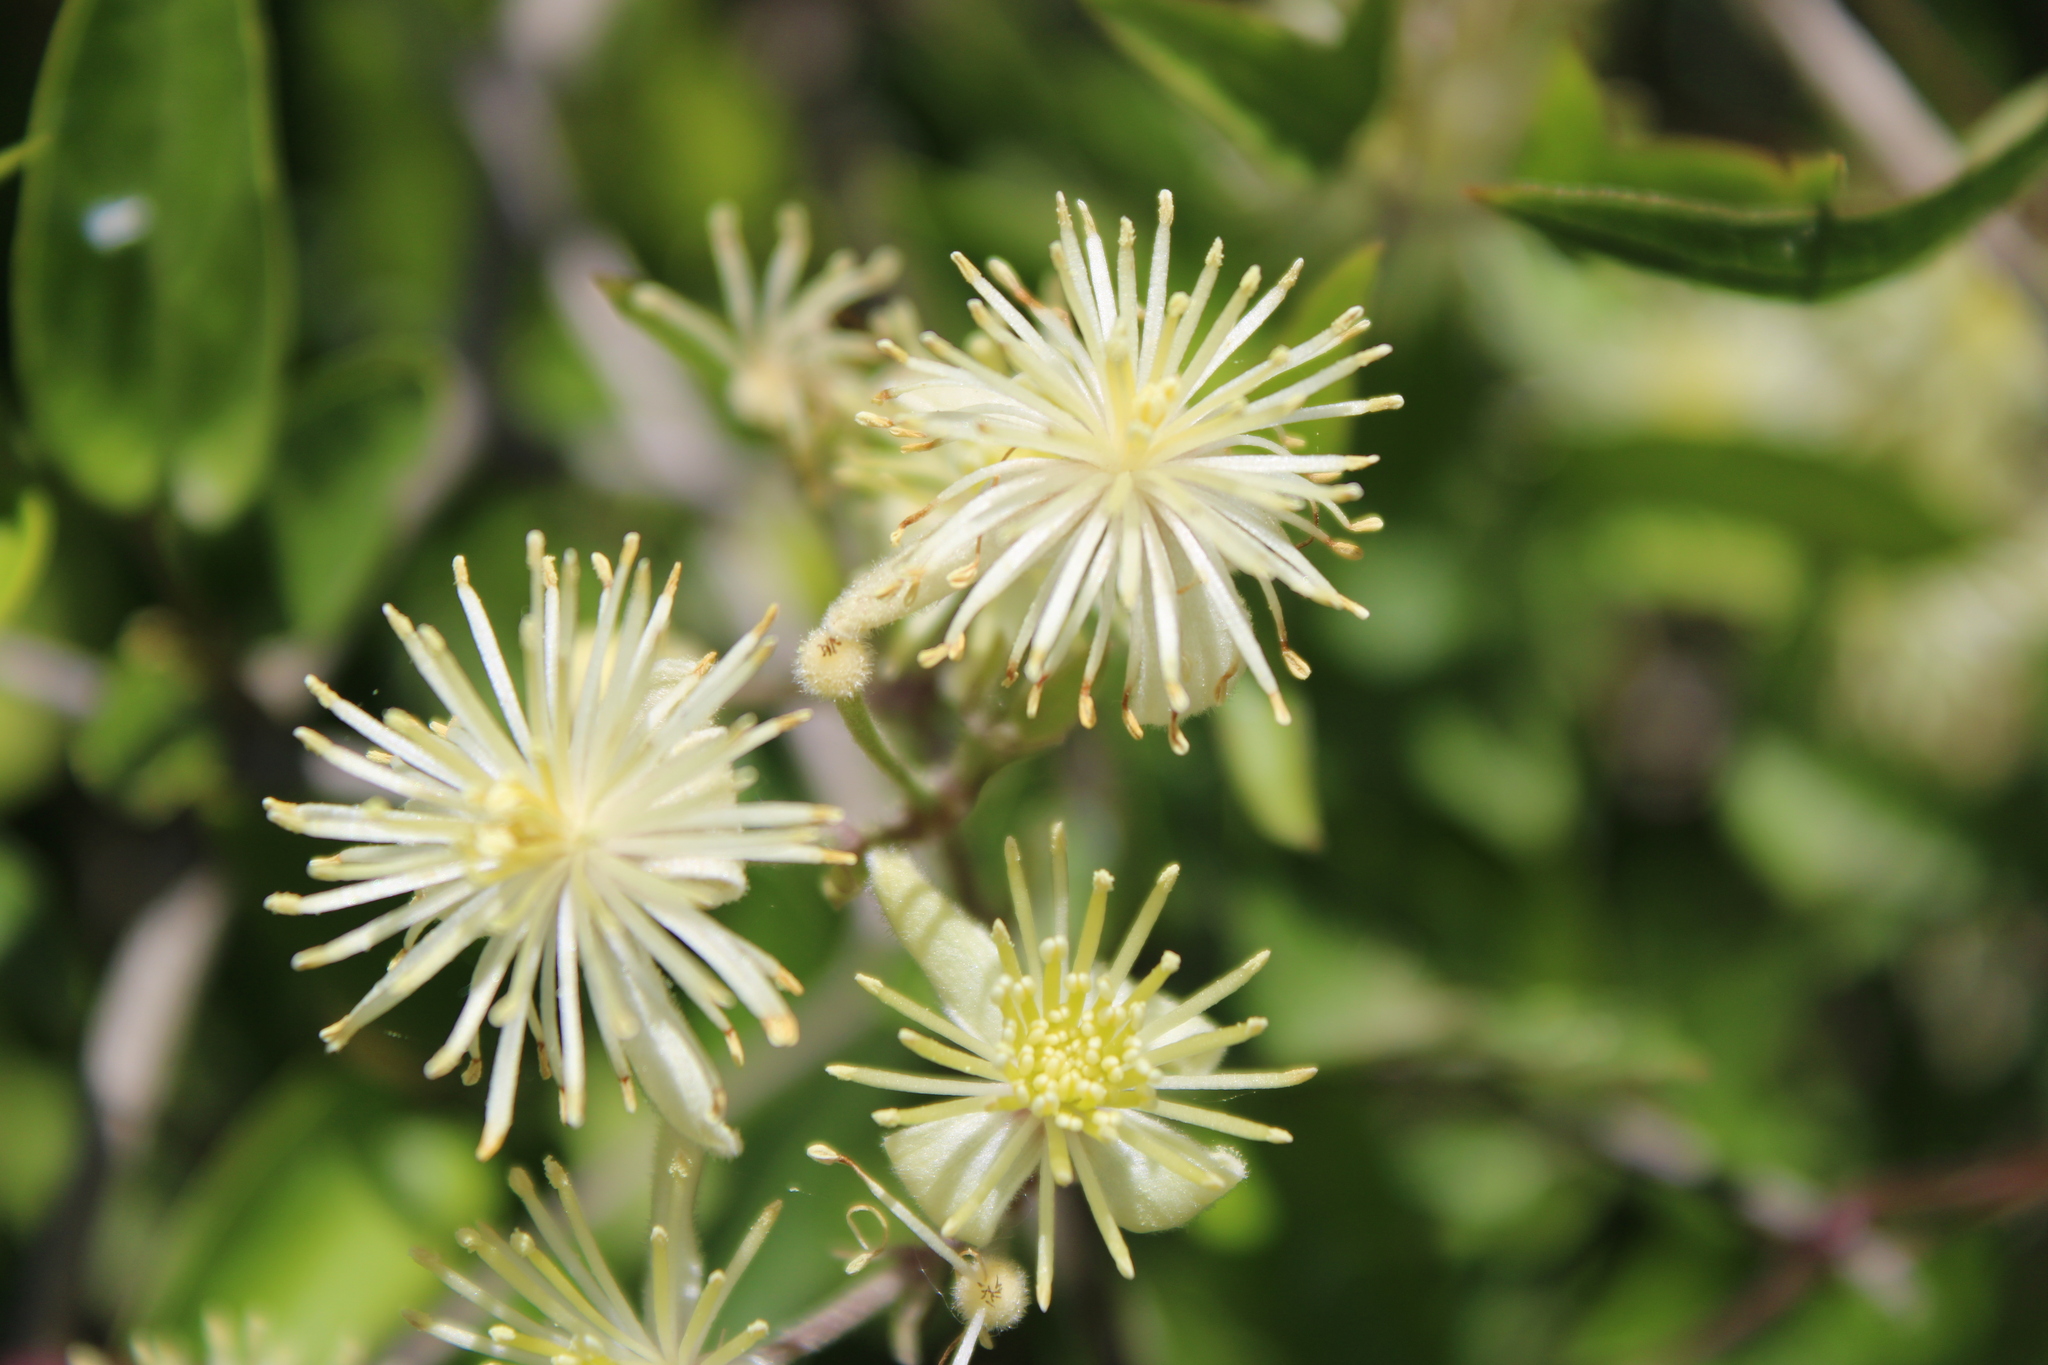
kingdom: Plantae
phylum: Tracheophyta
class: Magnoliopsida
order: Ranunculales
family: Ranunculaceae
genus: Clematis
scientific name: Clematis montevidensis
